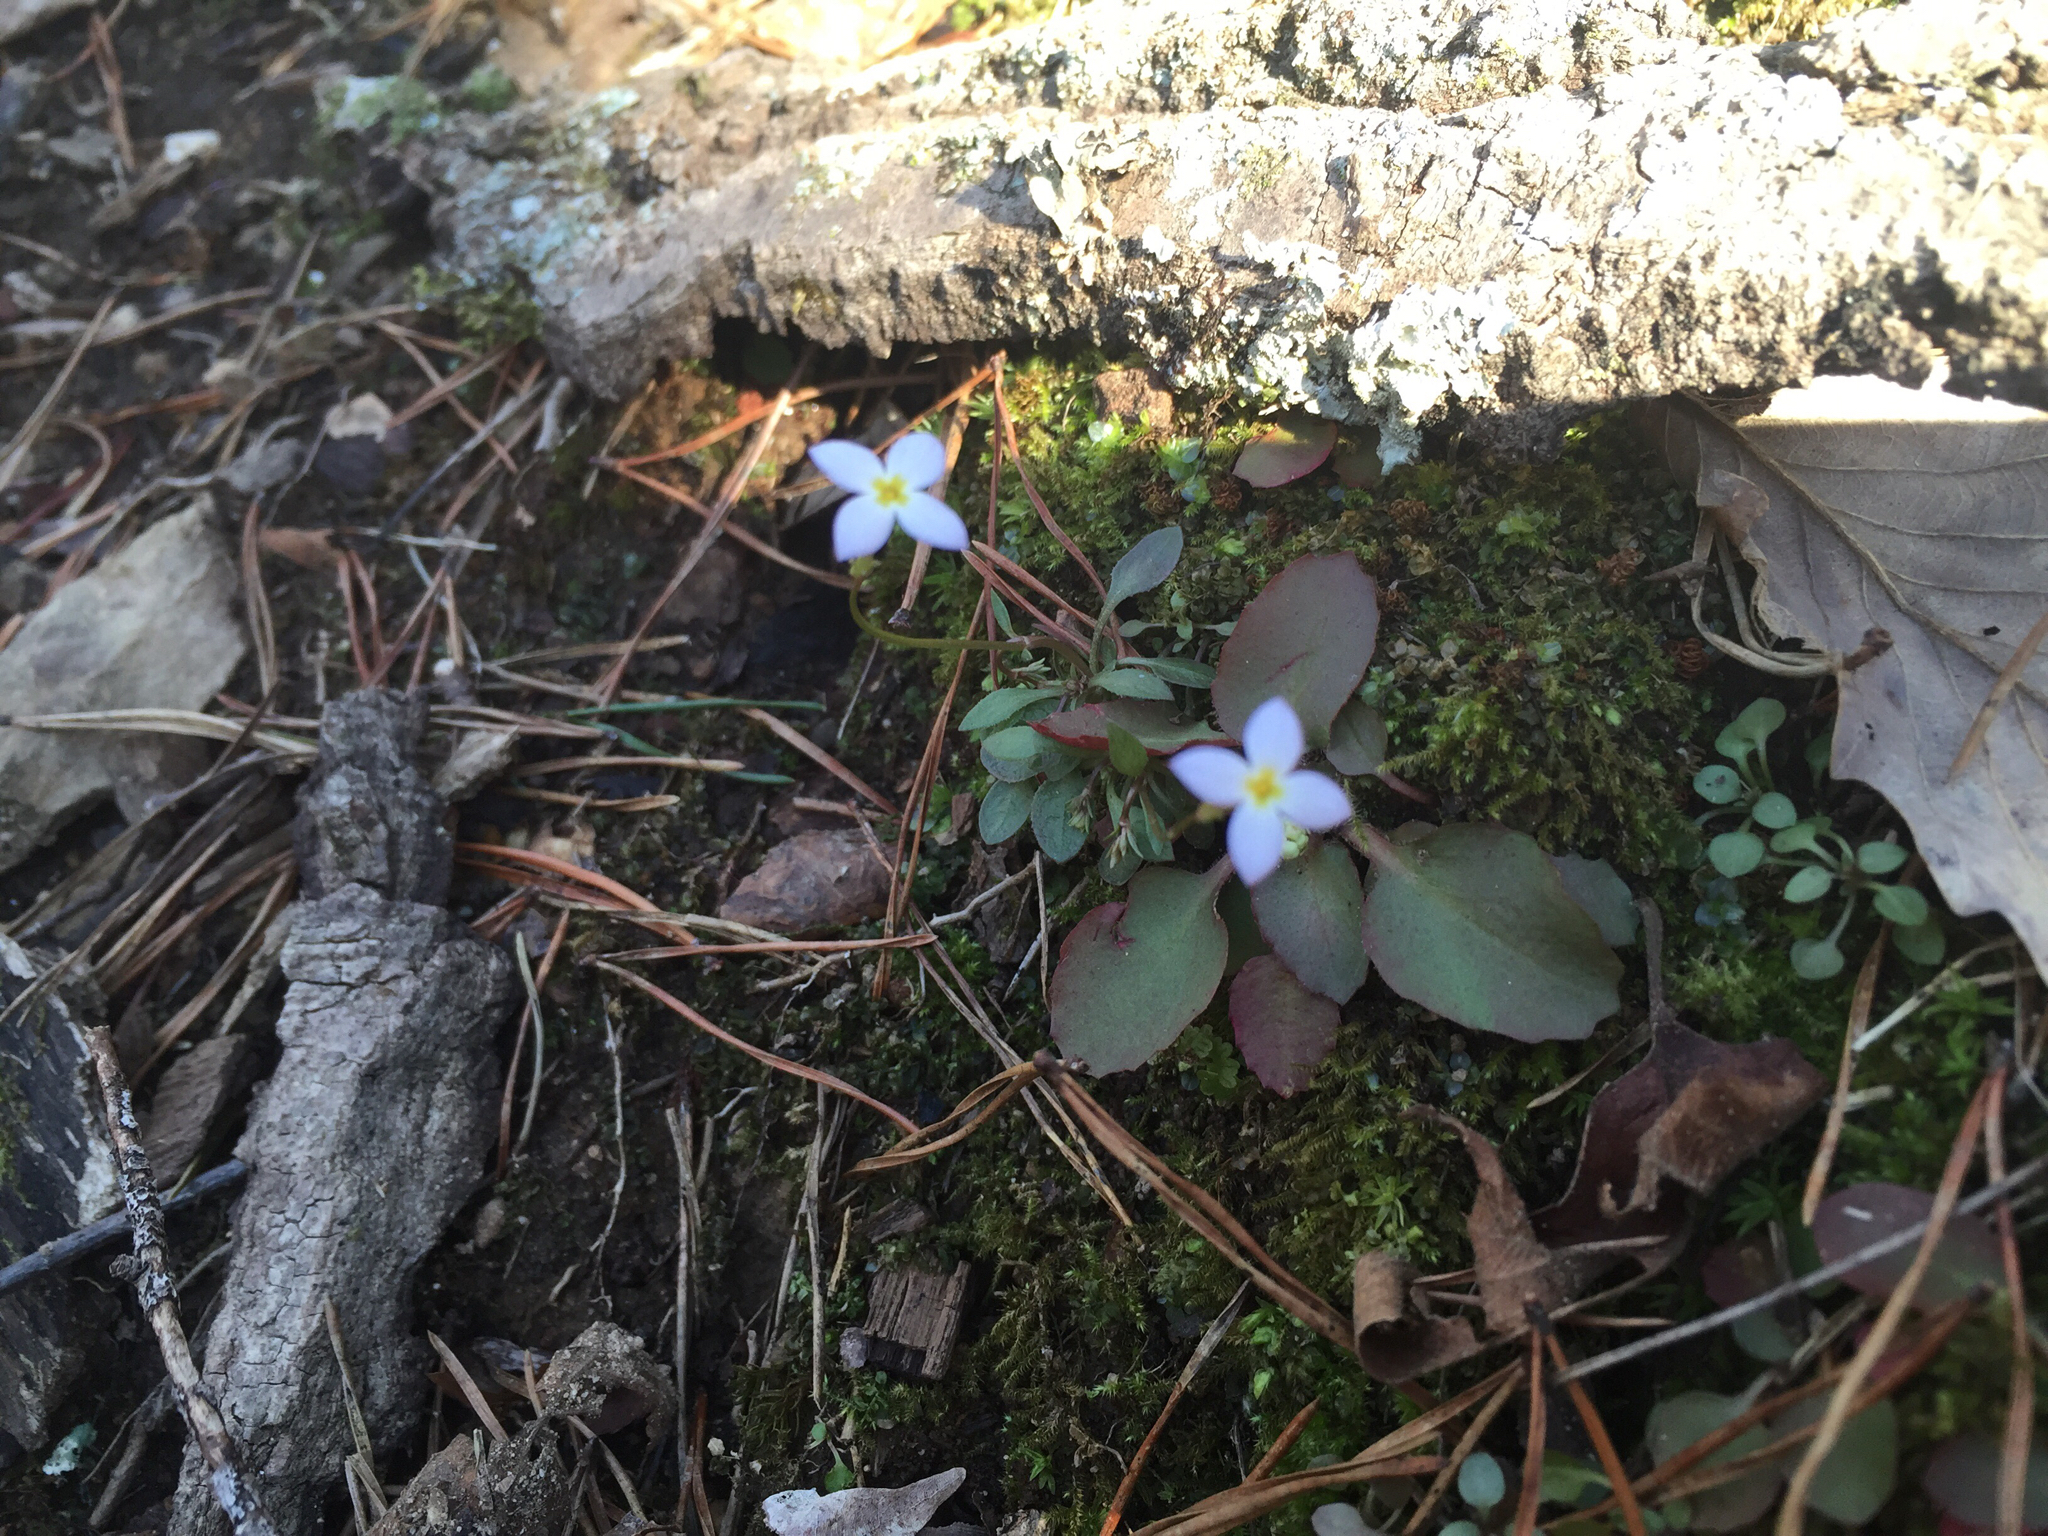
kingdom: Plantae
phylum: Tracheophyta
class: Magnoliopsida
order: Gentianales
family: Rubiaceae
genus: Houstonia
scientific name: Houstonia caerulea
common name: Bluets
